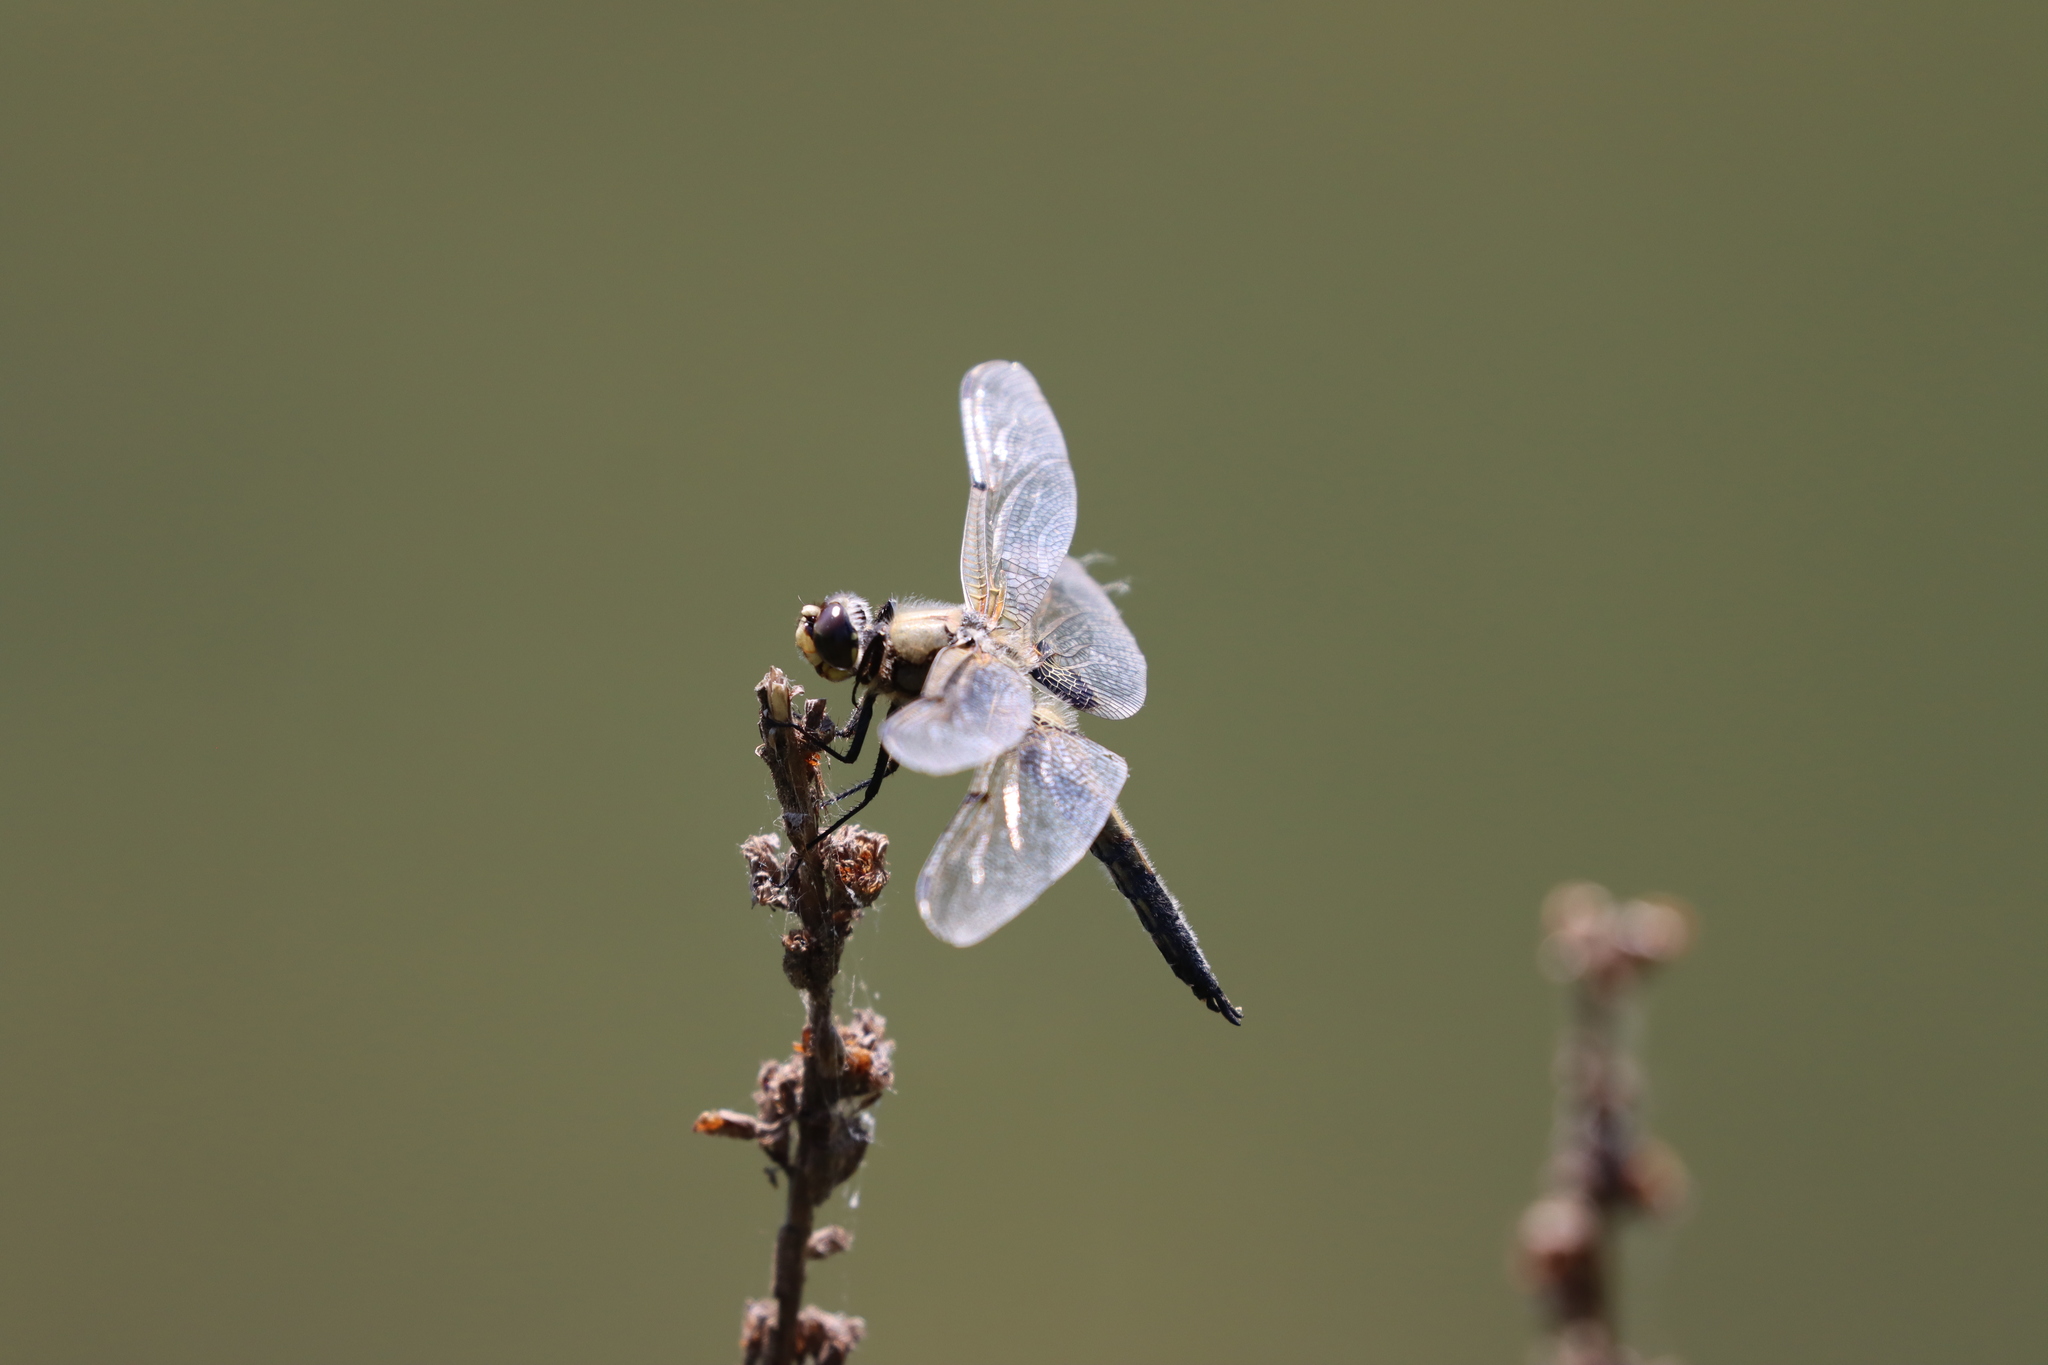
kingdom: Animalia
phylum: Arthropoda
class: Insecta
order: Odonata
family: Libellulidae
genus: Libellula
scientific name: Libellula quadrimaculata
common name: Four-spotted chaser
